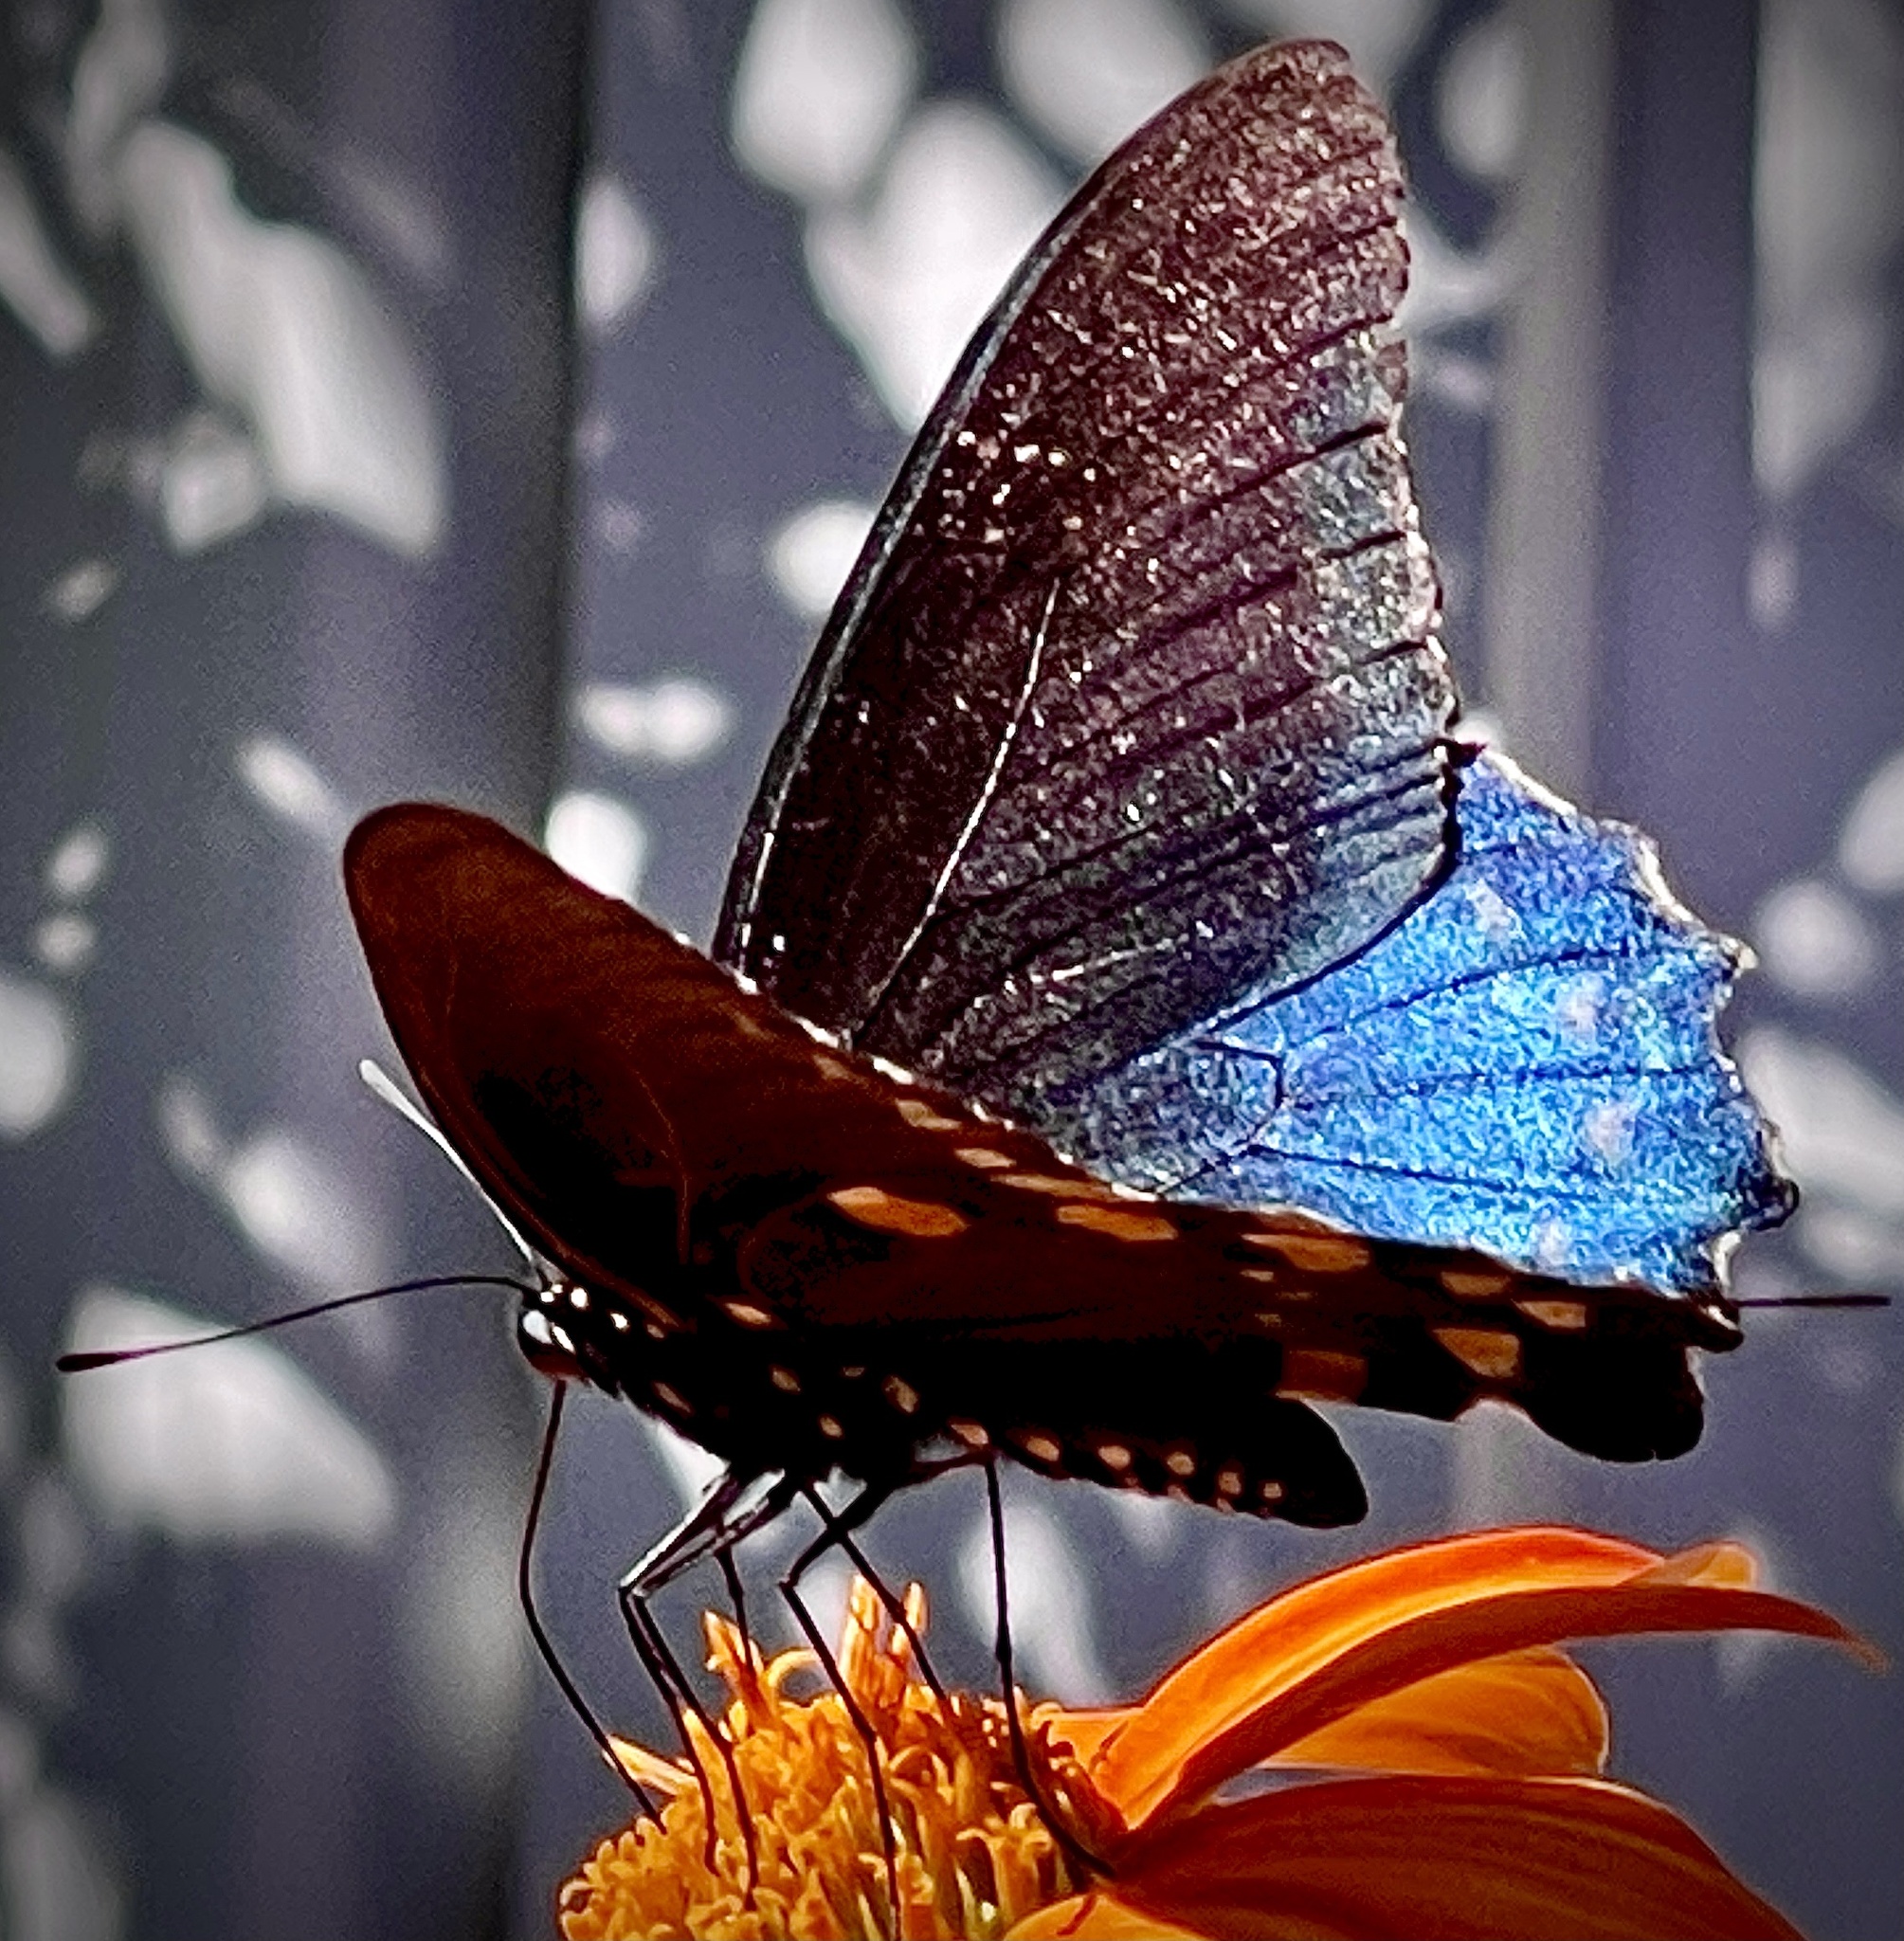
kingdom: Animalia
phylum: Arthropoda
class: Insecta
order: Lepidoptera
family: Papilionidae
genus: Battus
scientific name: Battus philenor
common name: Pipevine swallowtail
